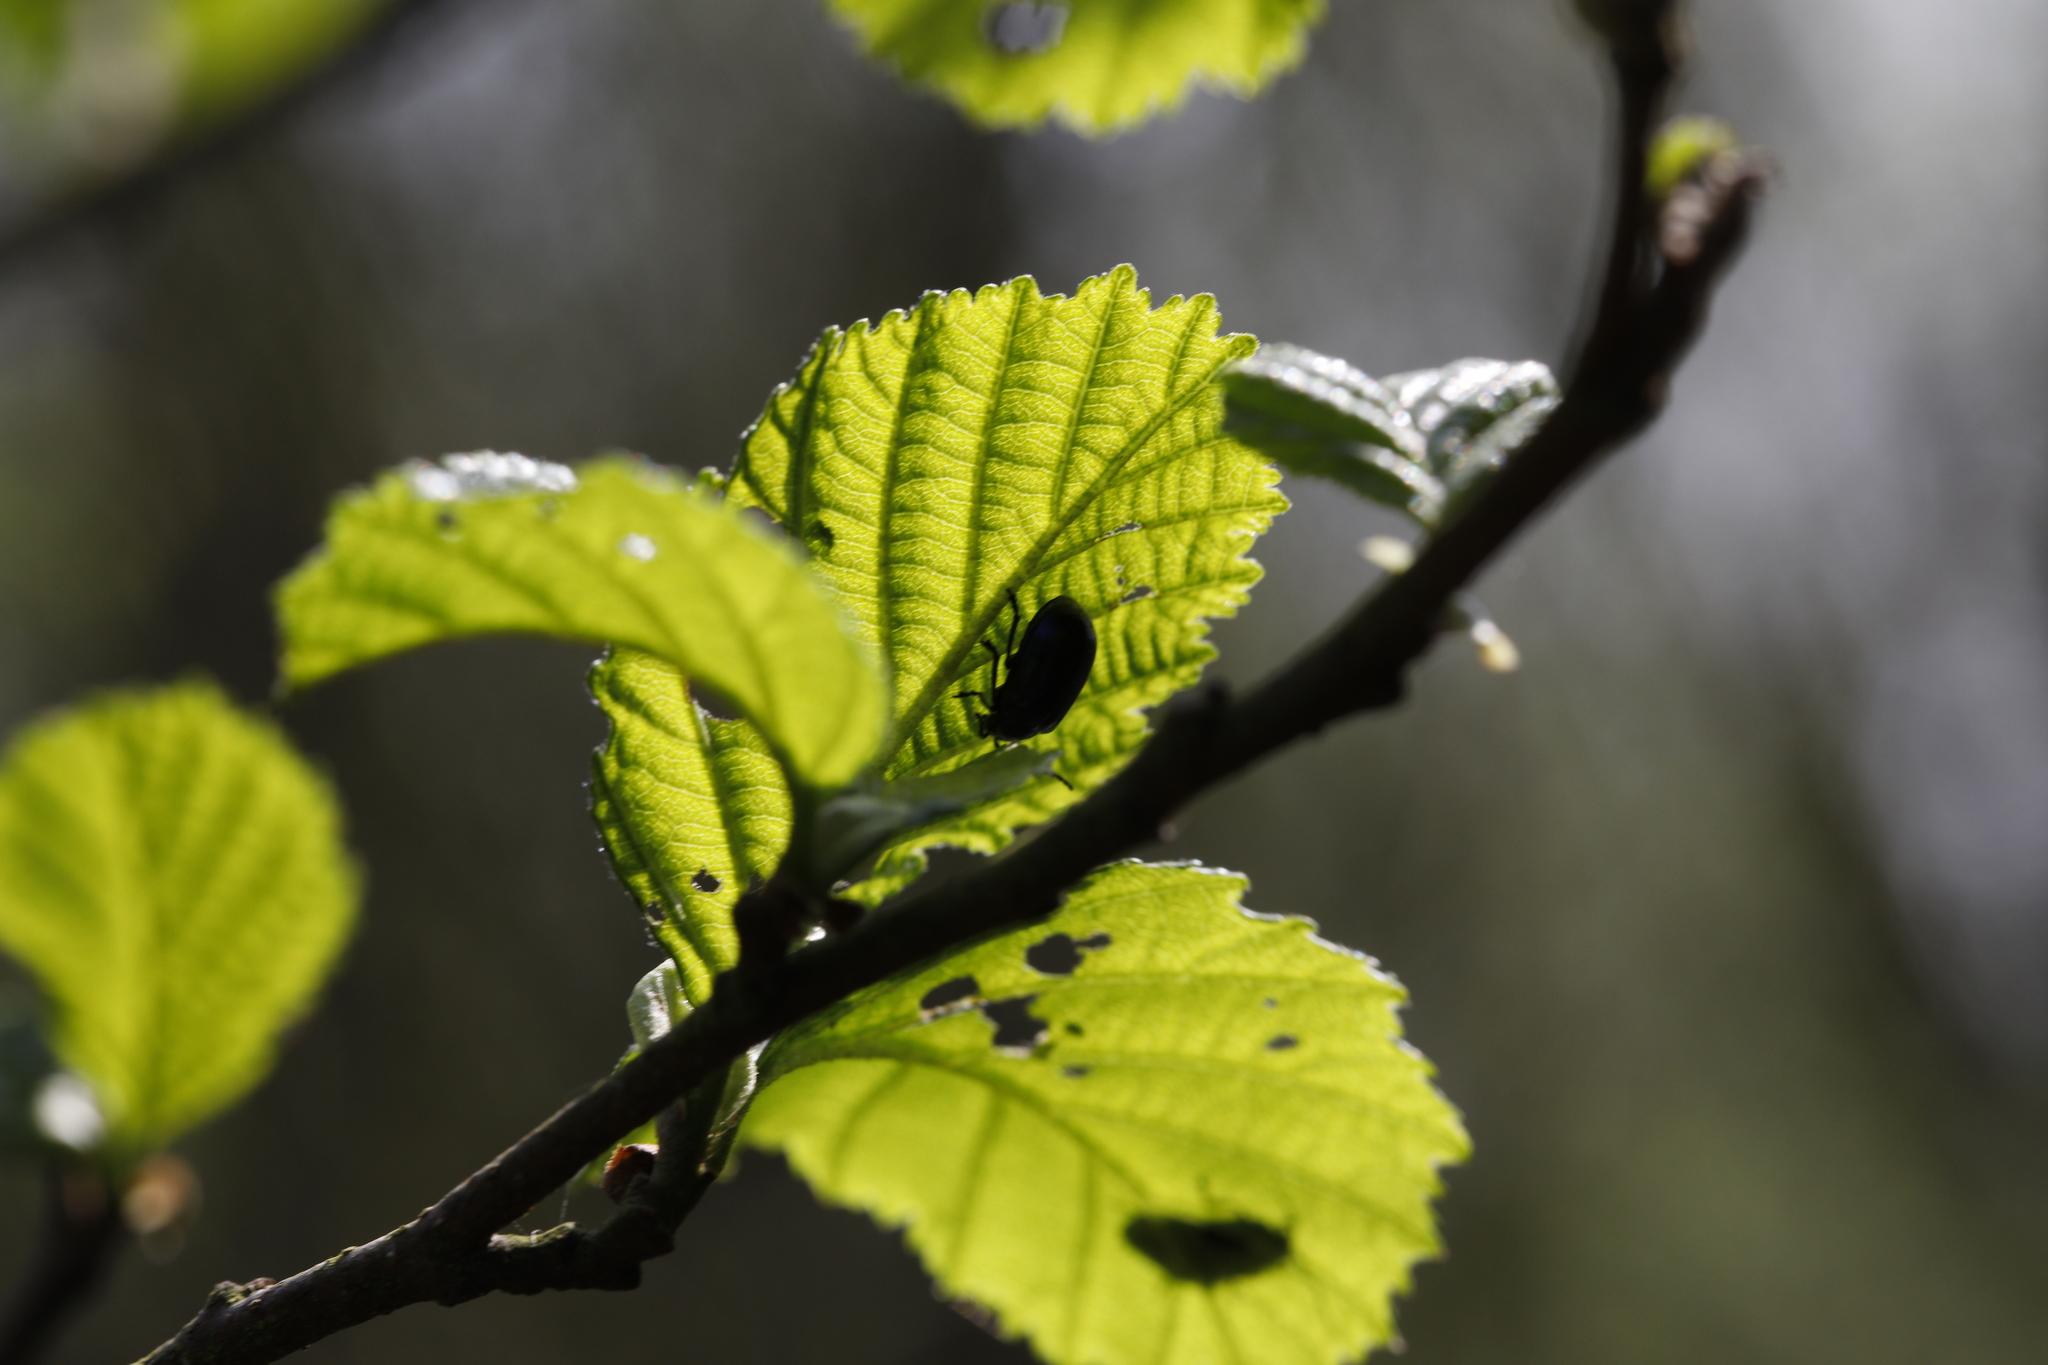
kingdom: Plantae
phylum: Tracheophyta
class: Magnoliopsida
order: Fagales
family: Betulaceae
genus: Alnus
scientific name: Alnus glutinosa
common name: Black alder
